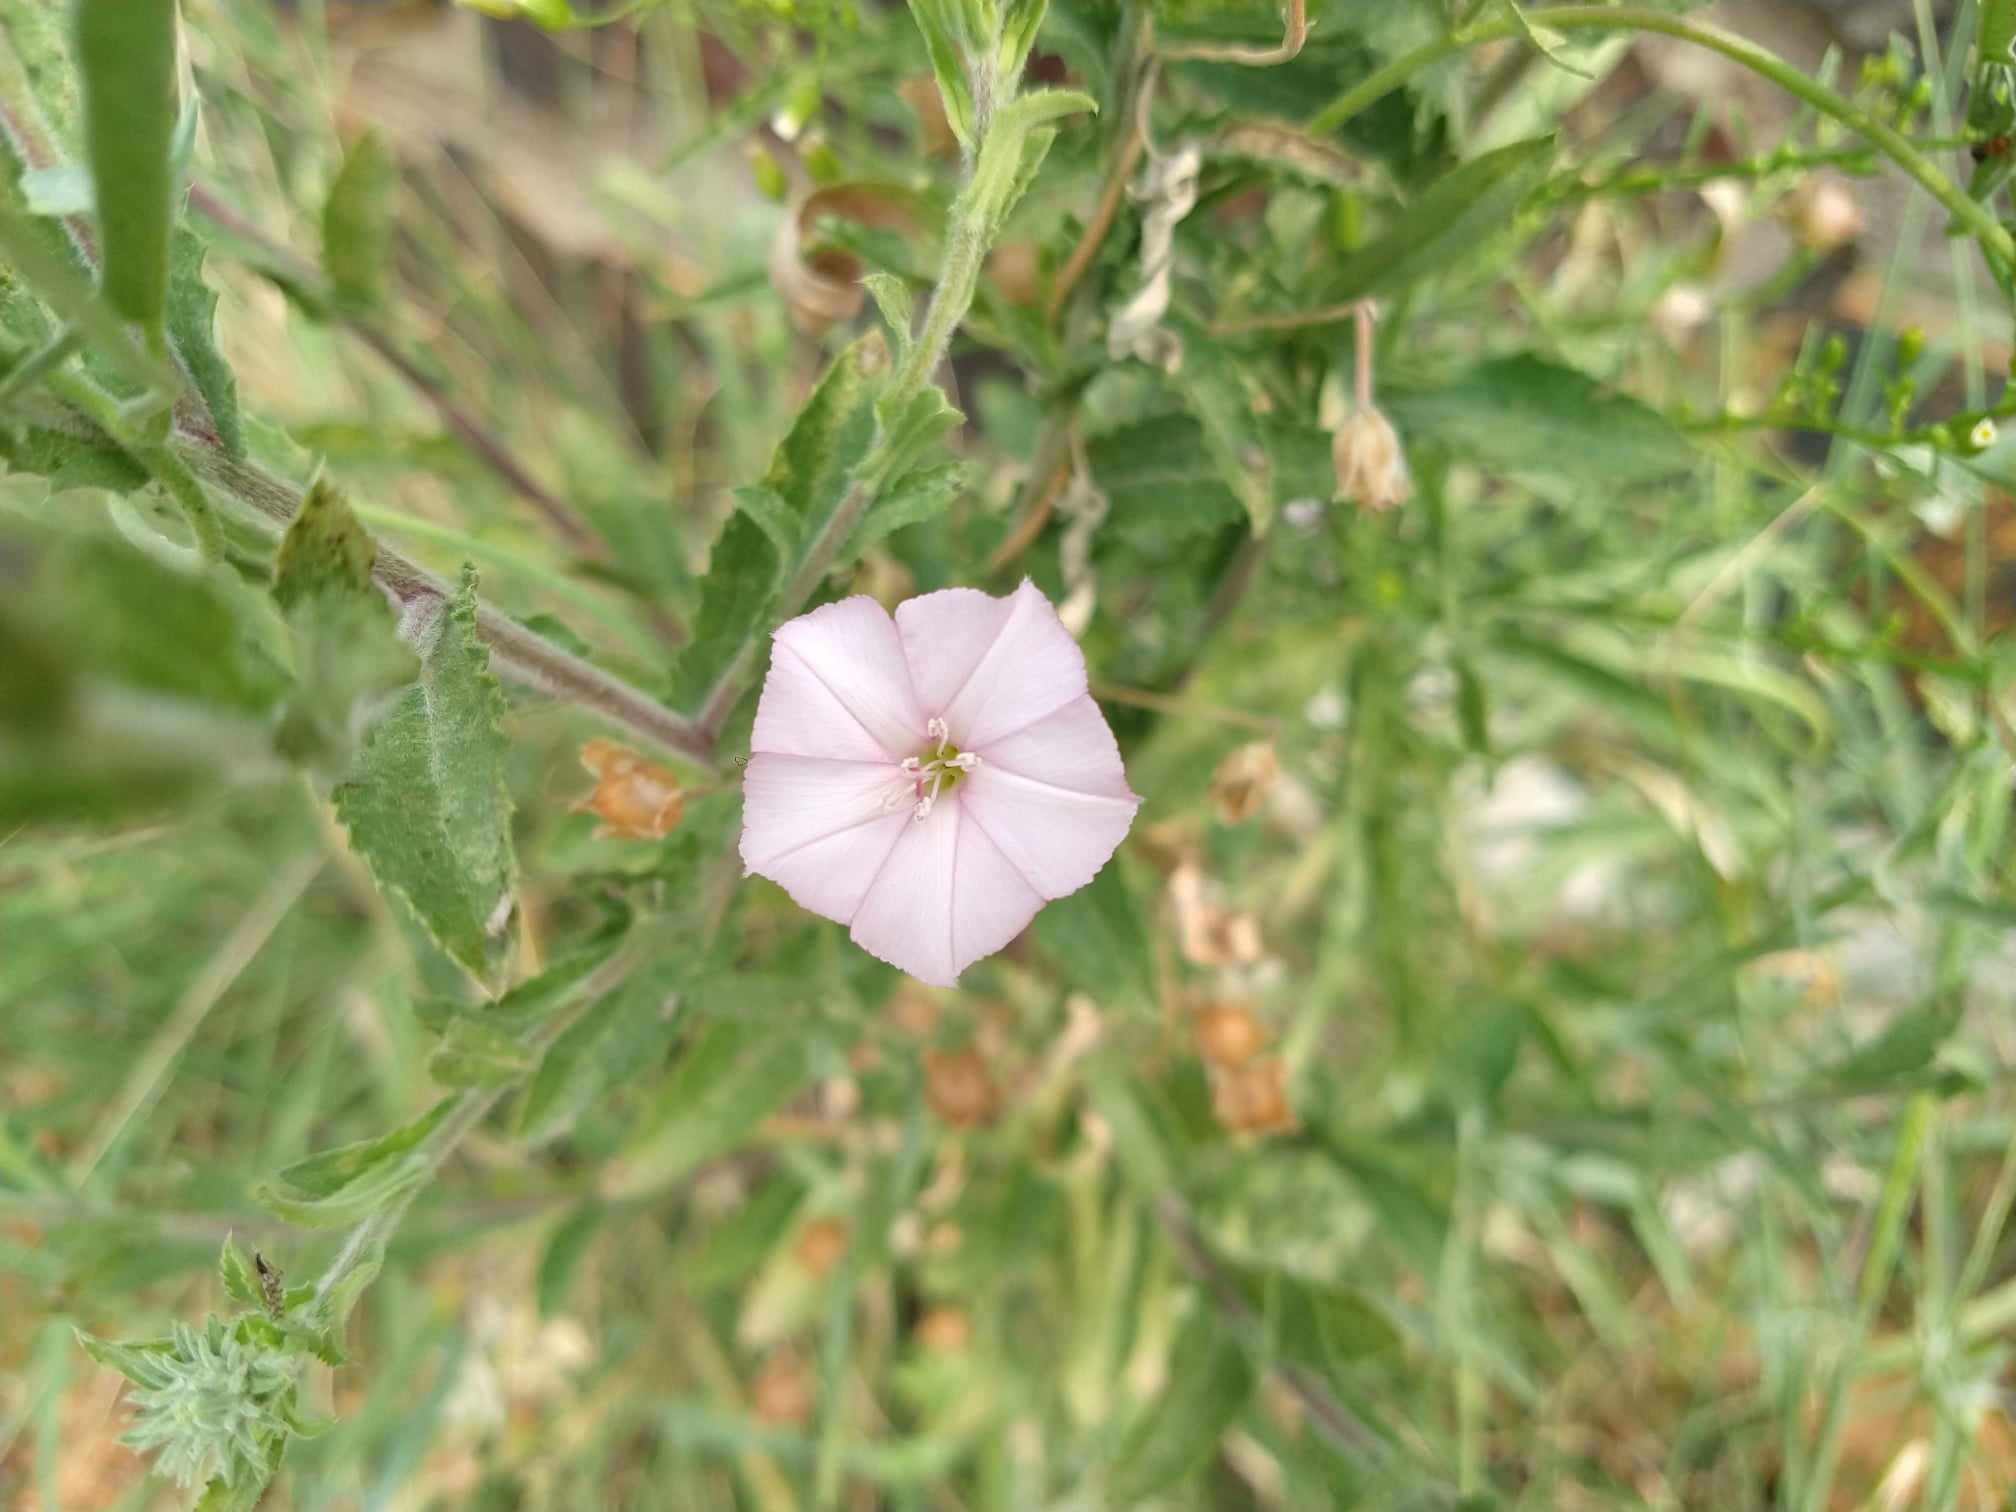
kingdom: Plantae
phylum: Tracheophyta
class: Magnoliopsida
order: Solanales
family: Convolvulaceae
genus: Convolvulus
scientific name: Convolvulus equitans
